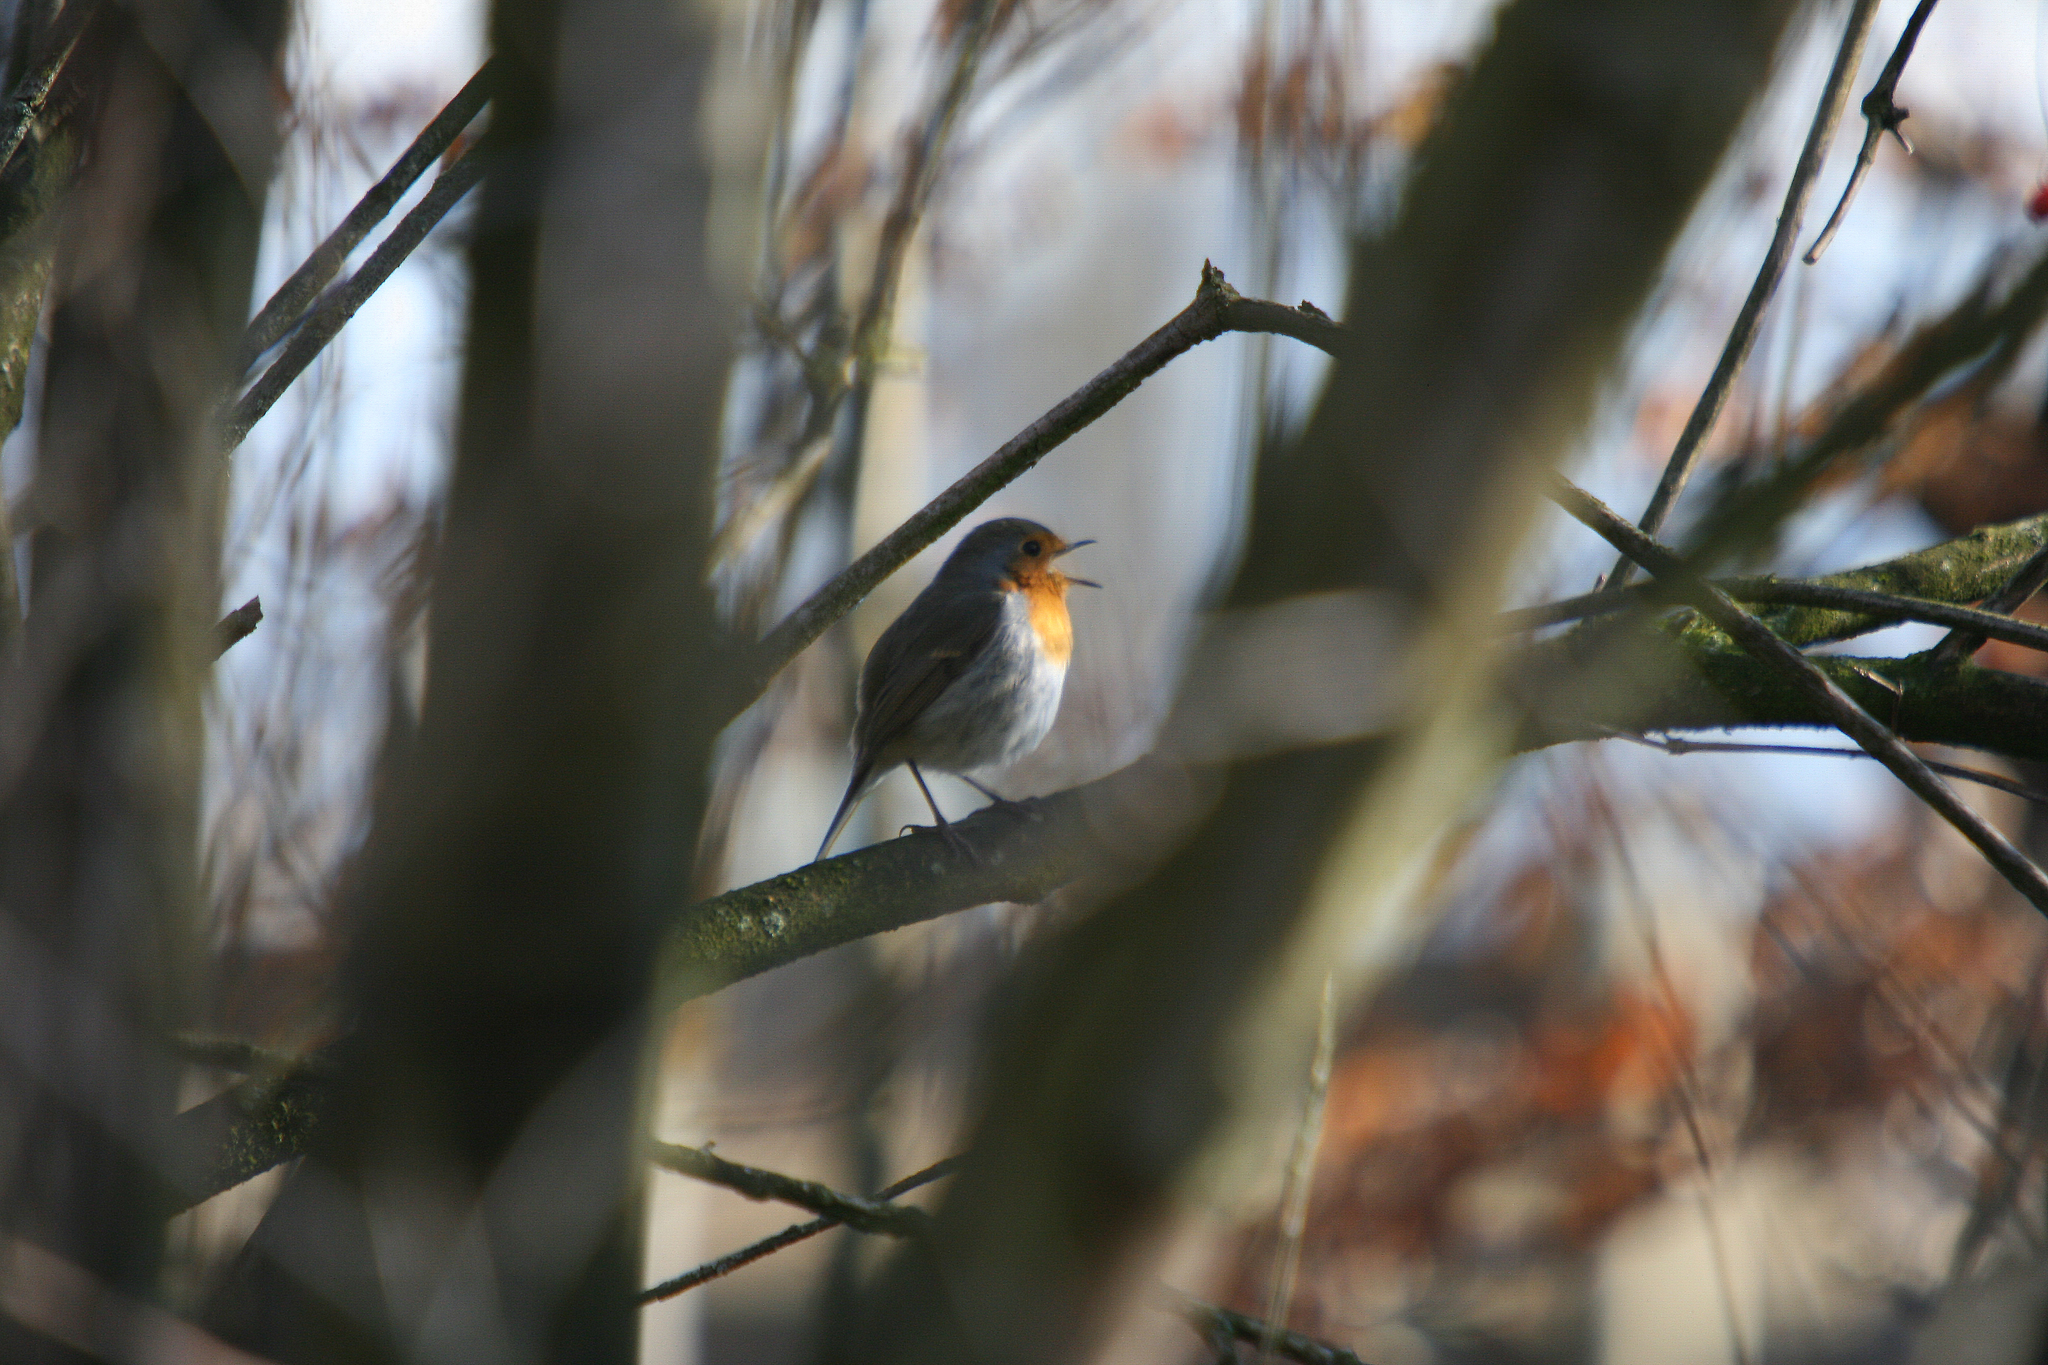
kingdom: Animalia
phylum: Chordata
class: Aves
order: Passeriformes
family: Muscicapidae
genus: Erithacus
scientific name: Erithacus rubecula
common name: European robin
